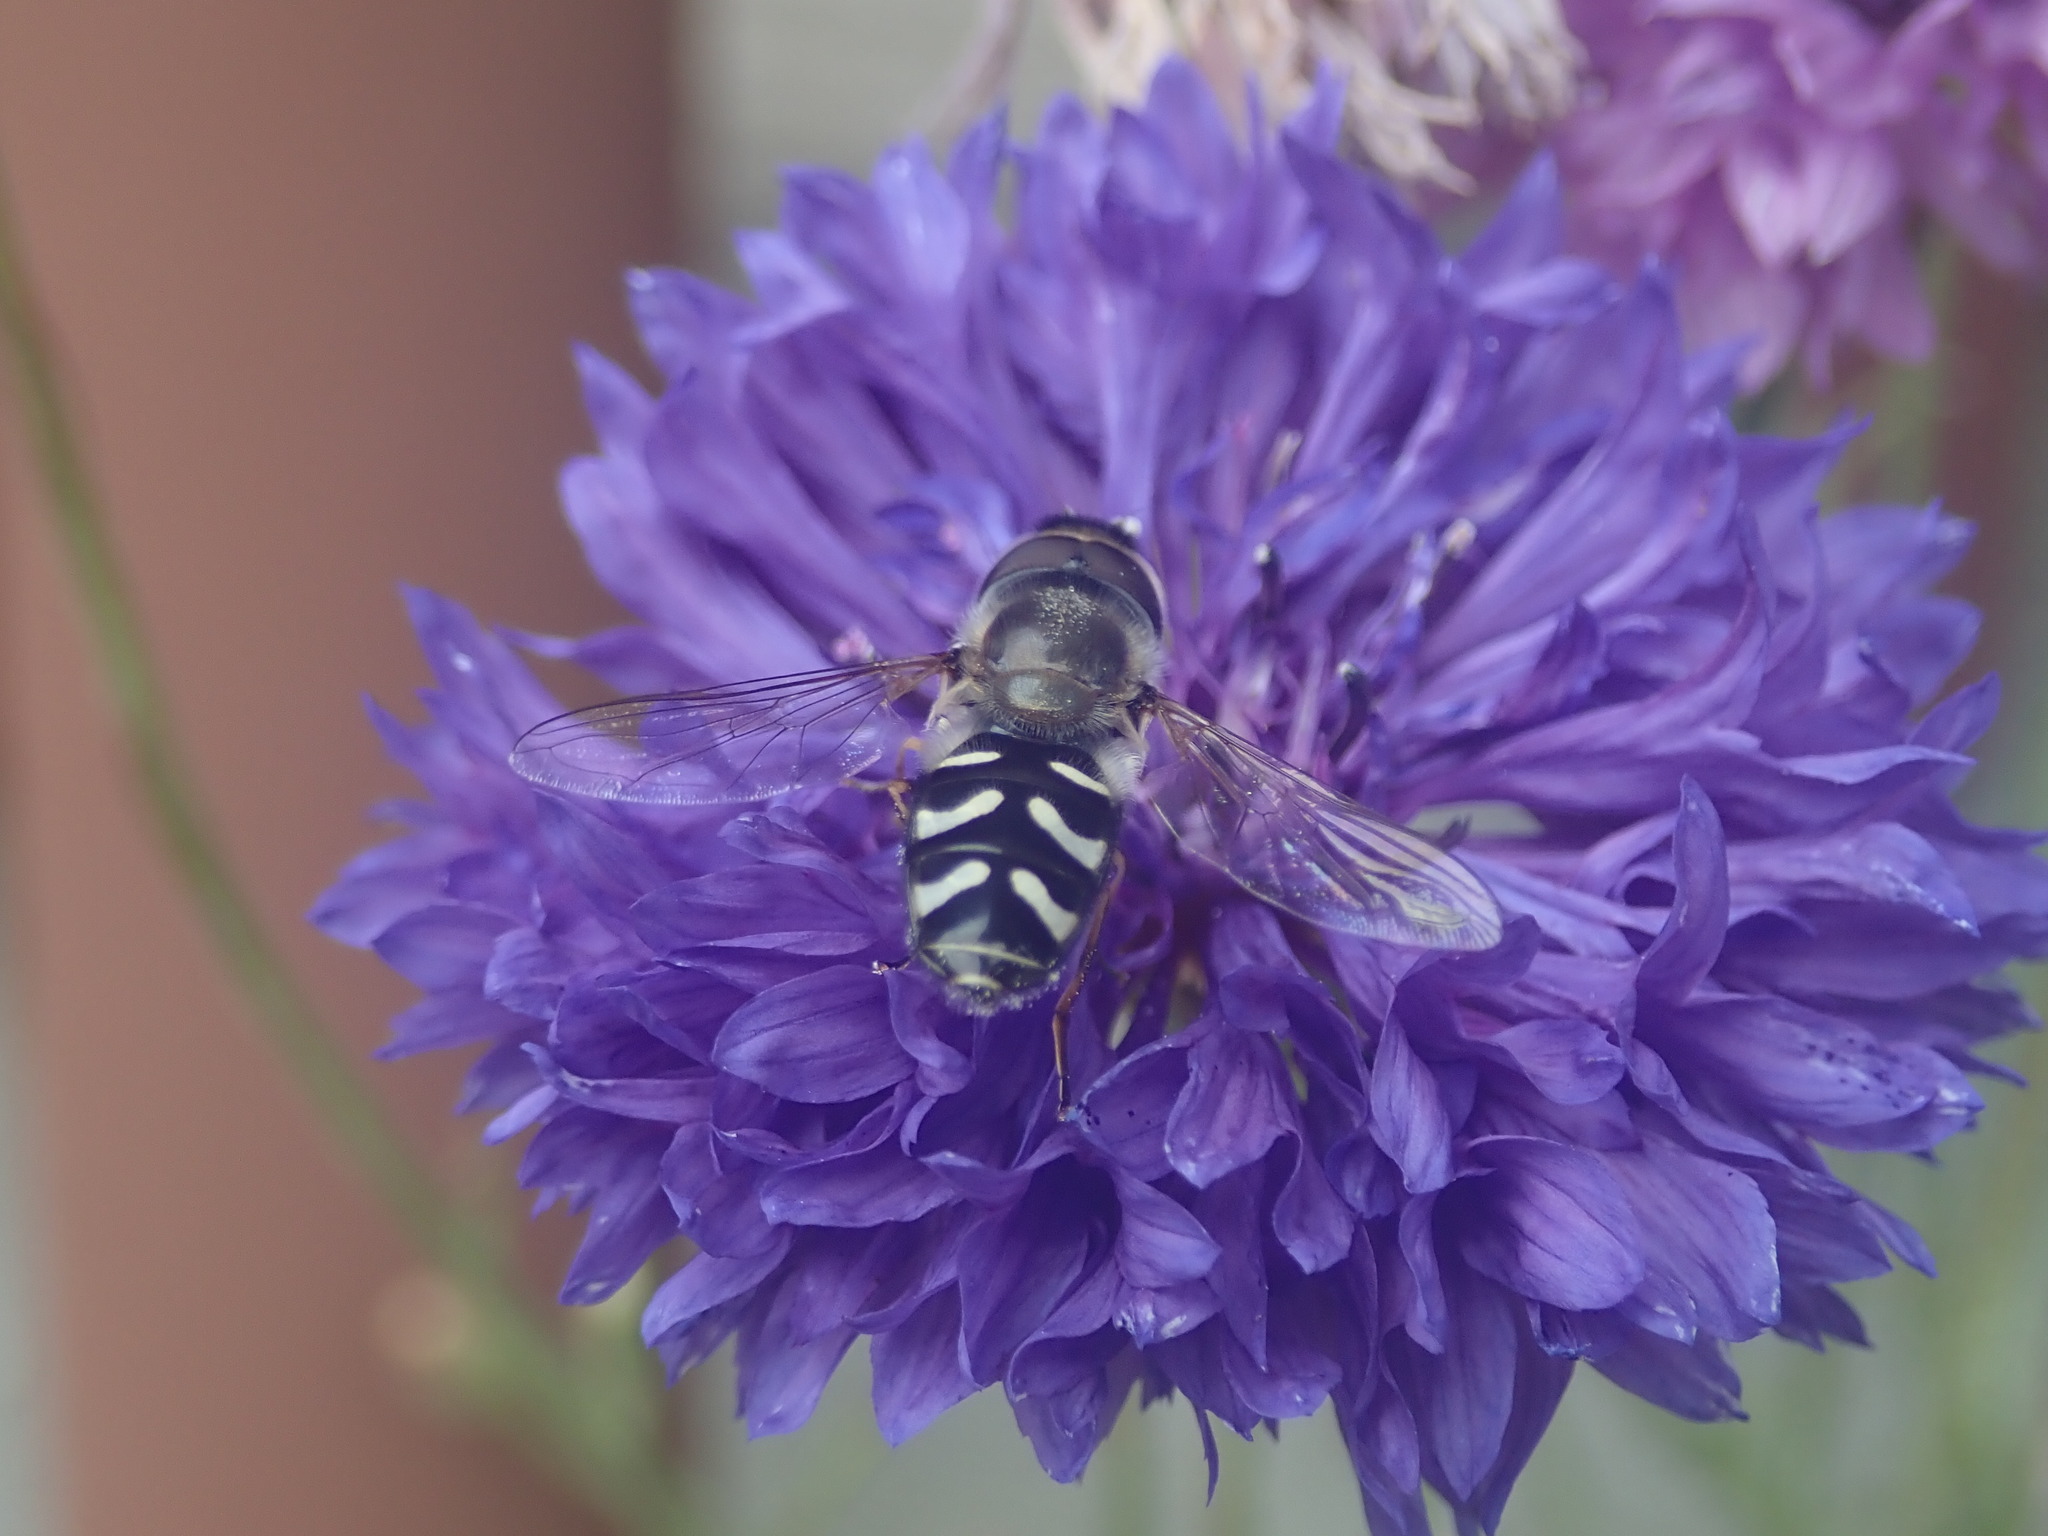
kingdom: Animalia
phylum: Arthropoda
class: Insecta
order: Diptera
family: Syrphidae
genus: Scaeva
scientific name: Scaeva affinis
